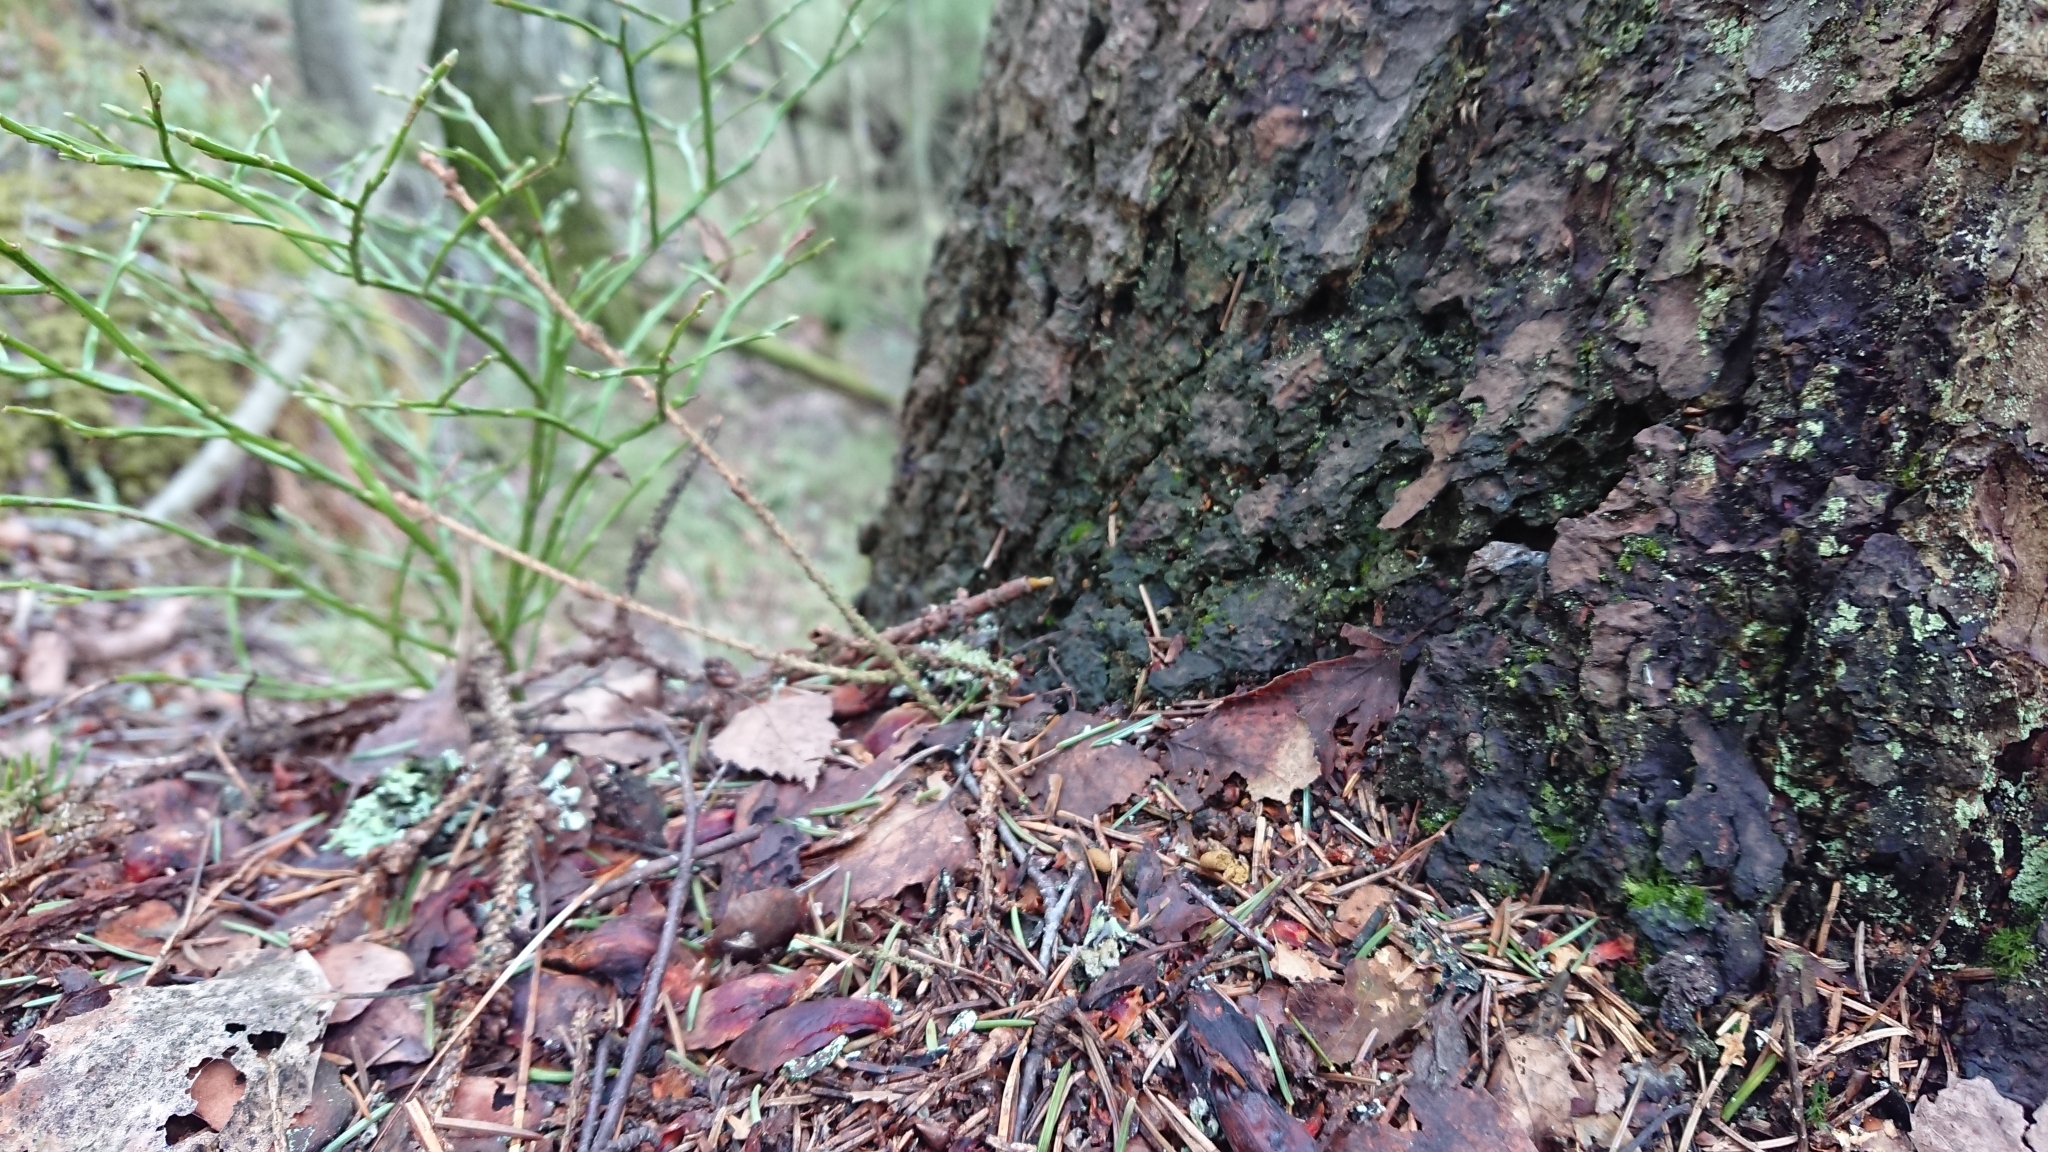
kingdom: Animalia
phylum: Chordata
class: Mammalia
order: Rodentia
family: Sciuridae
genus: Pteromys
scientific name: Pteromys volans
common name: Siberian flying squirrel
